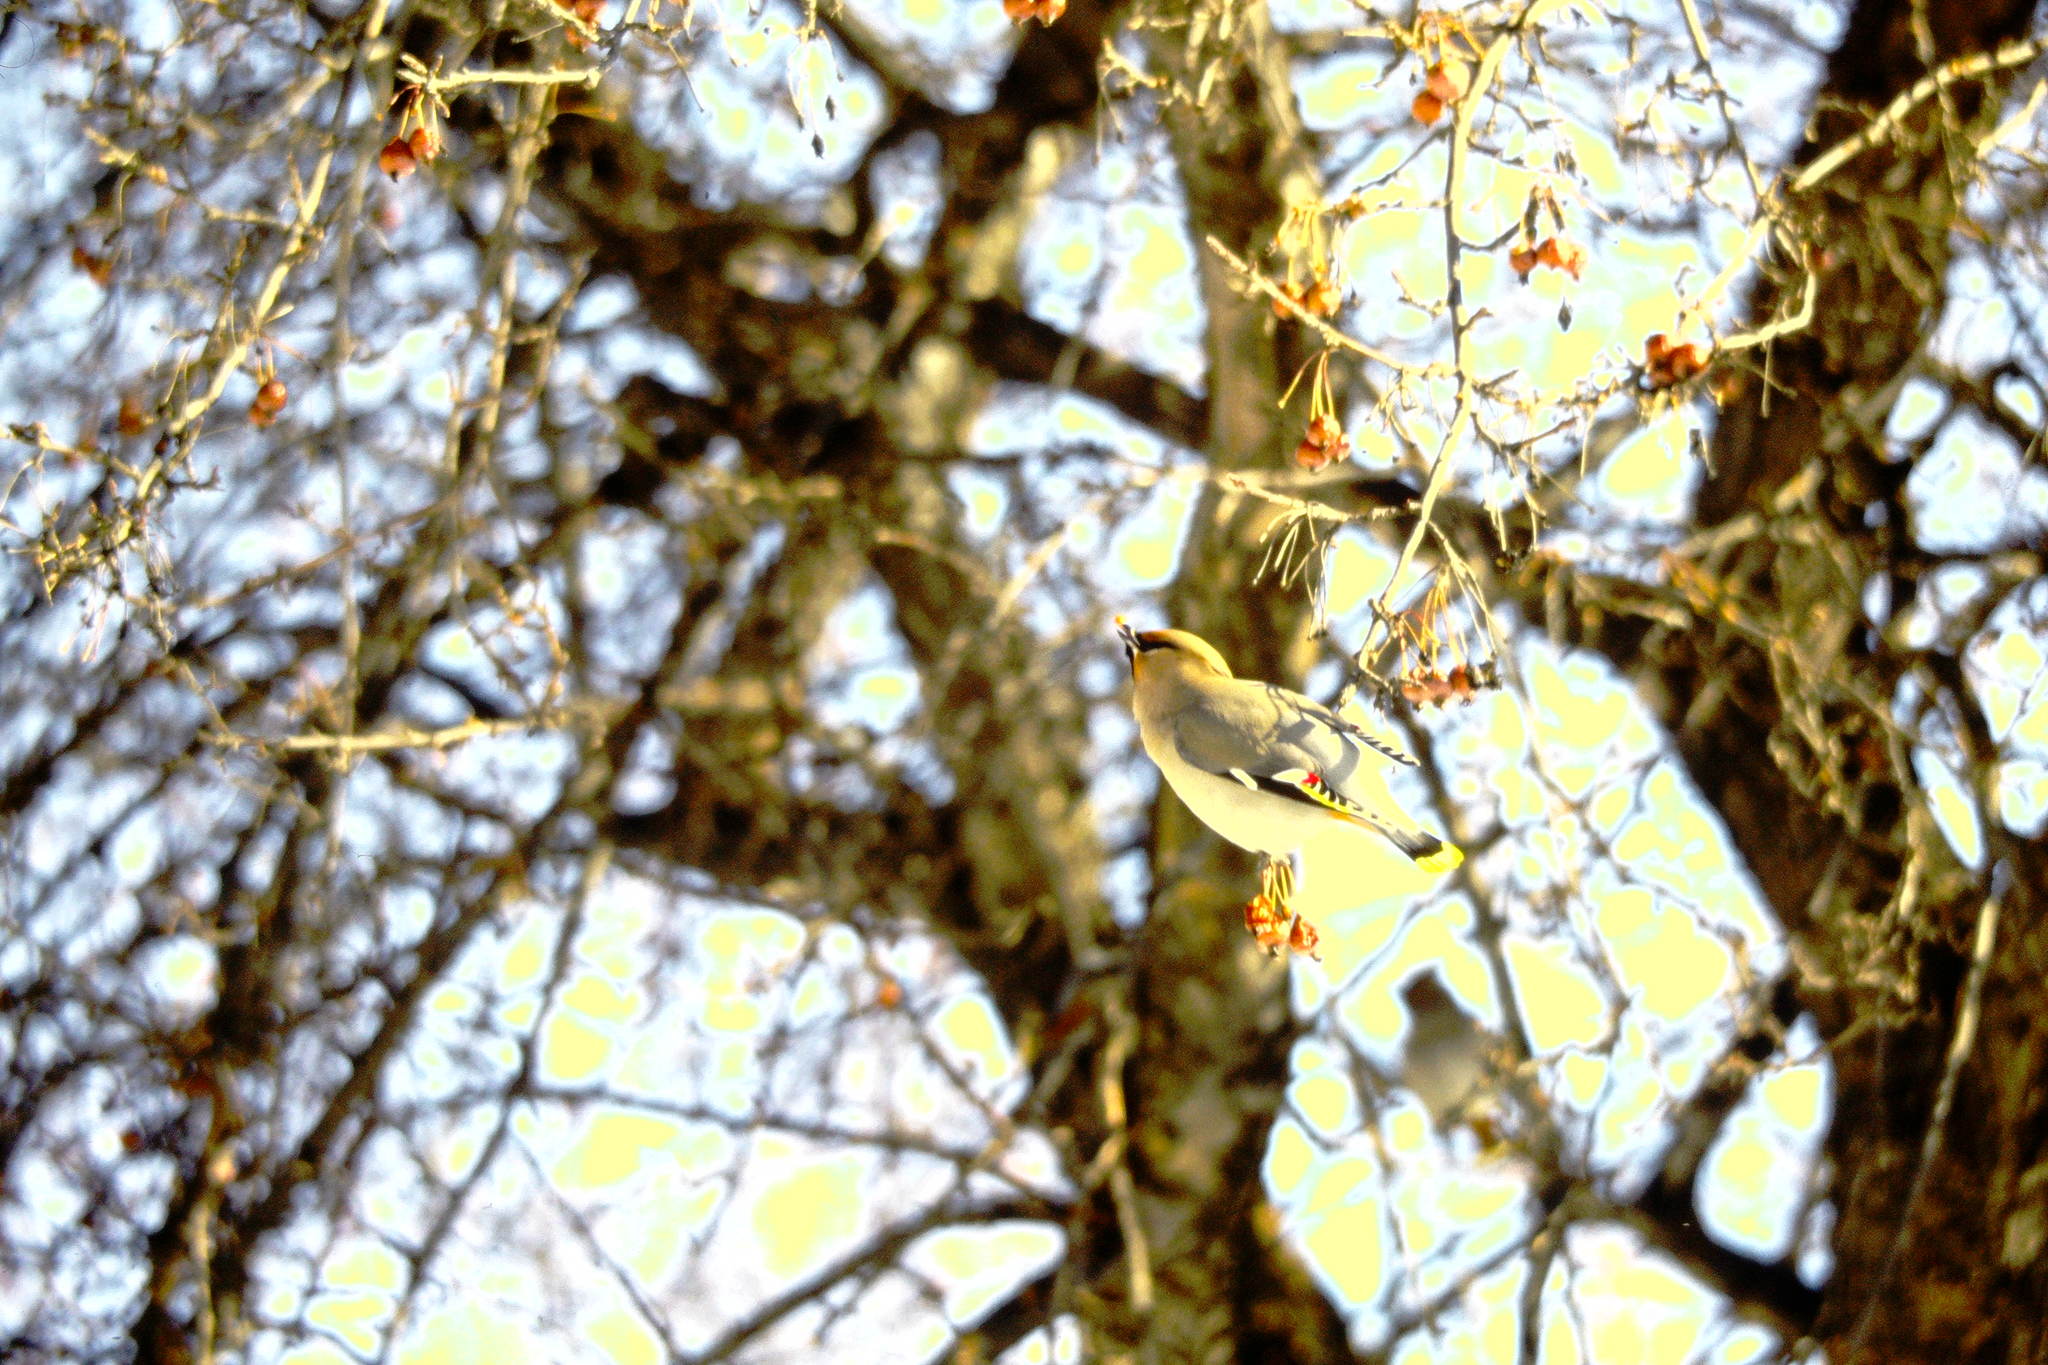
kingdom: Animalia
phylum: Chordata
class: Aves
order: Passeriformes
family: Bombycillidae
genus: Bombycilla
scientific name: Bombycilla garrulus
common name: Bohemian waxwing
